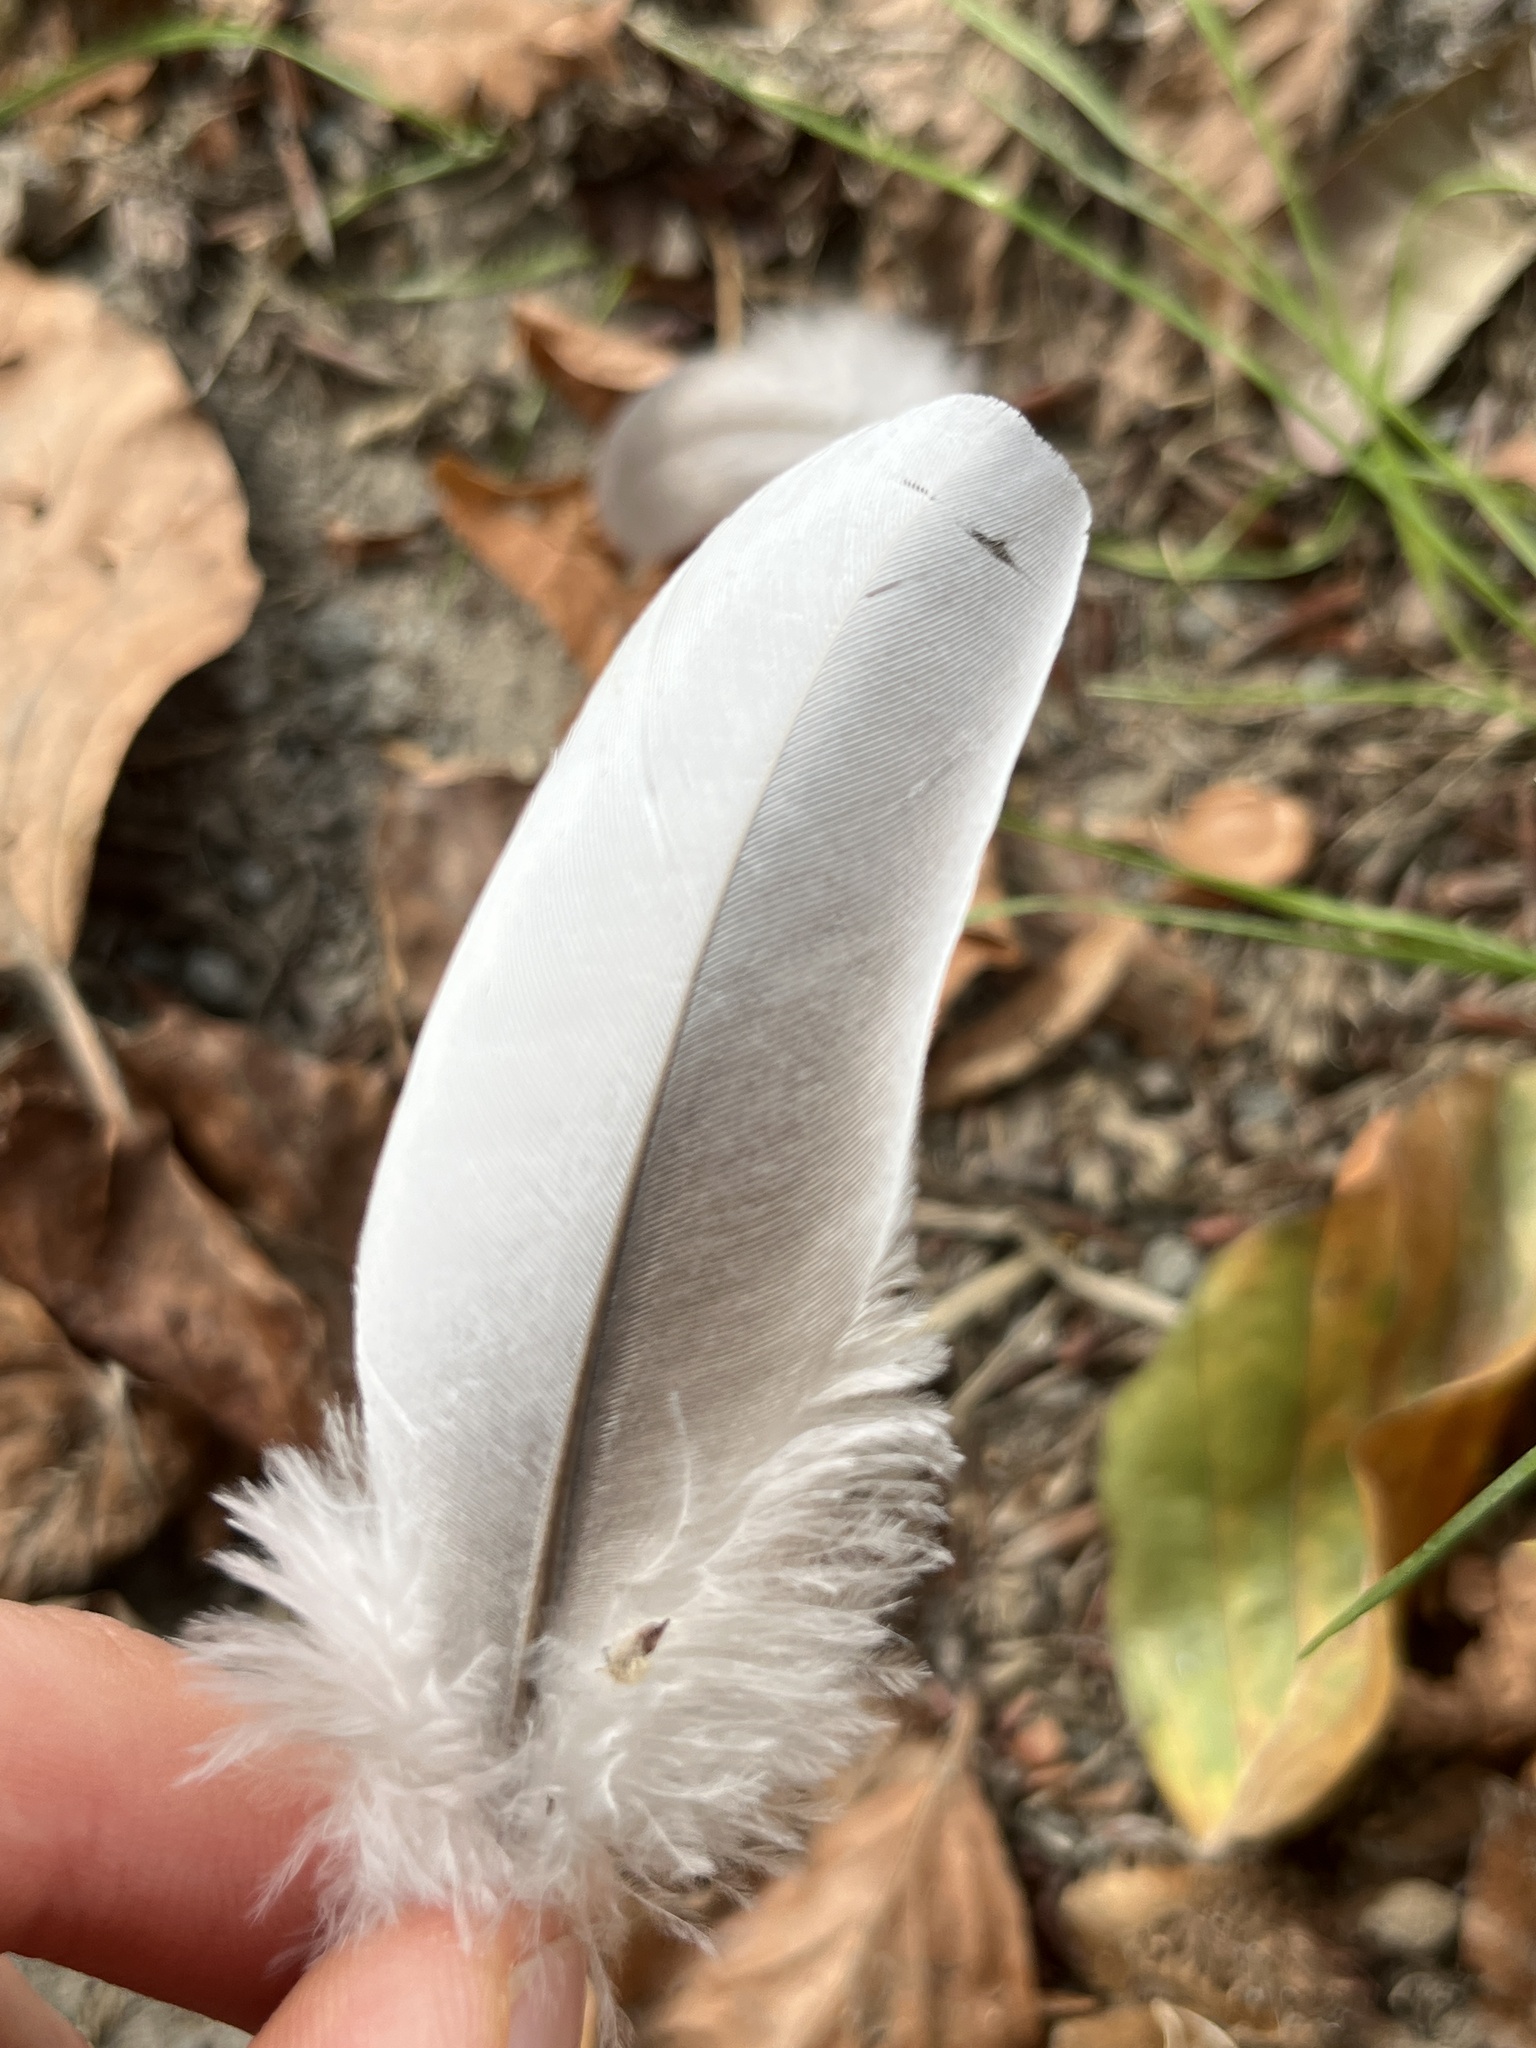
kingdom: Animalia
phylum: Chordata
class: Aves
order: Columbiformes
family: Columbidae
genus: Columba
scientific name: Columba palumbus
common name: Common wood pigeon
